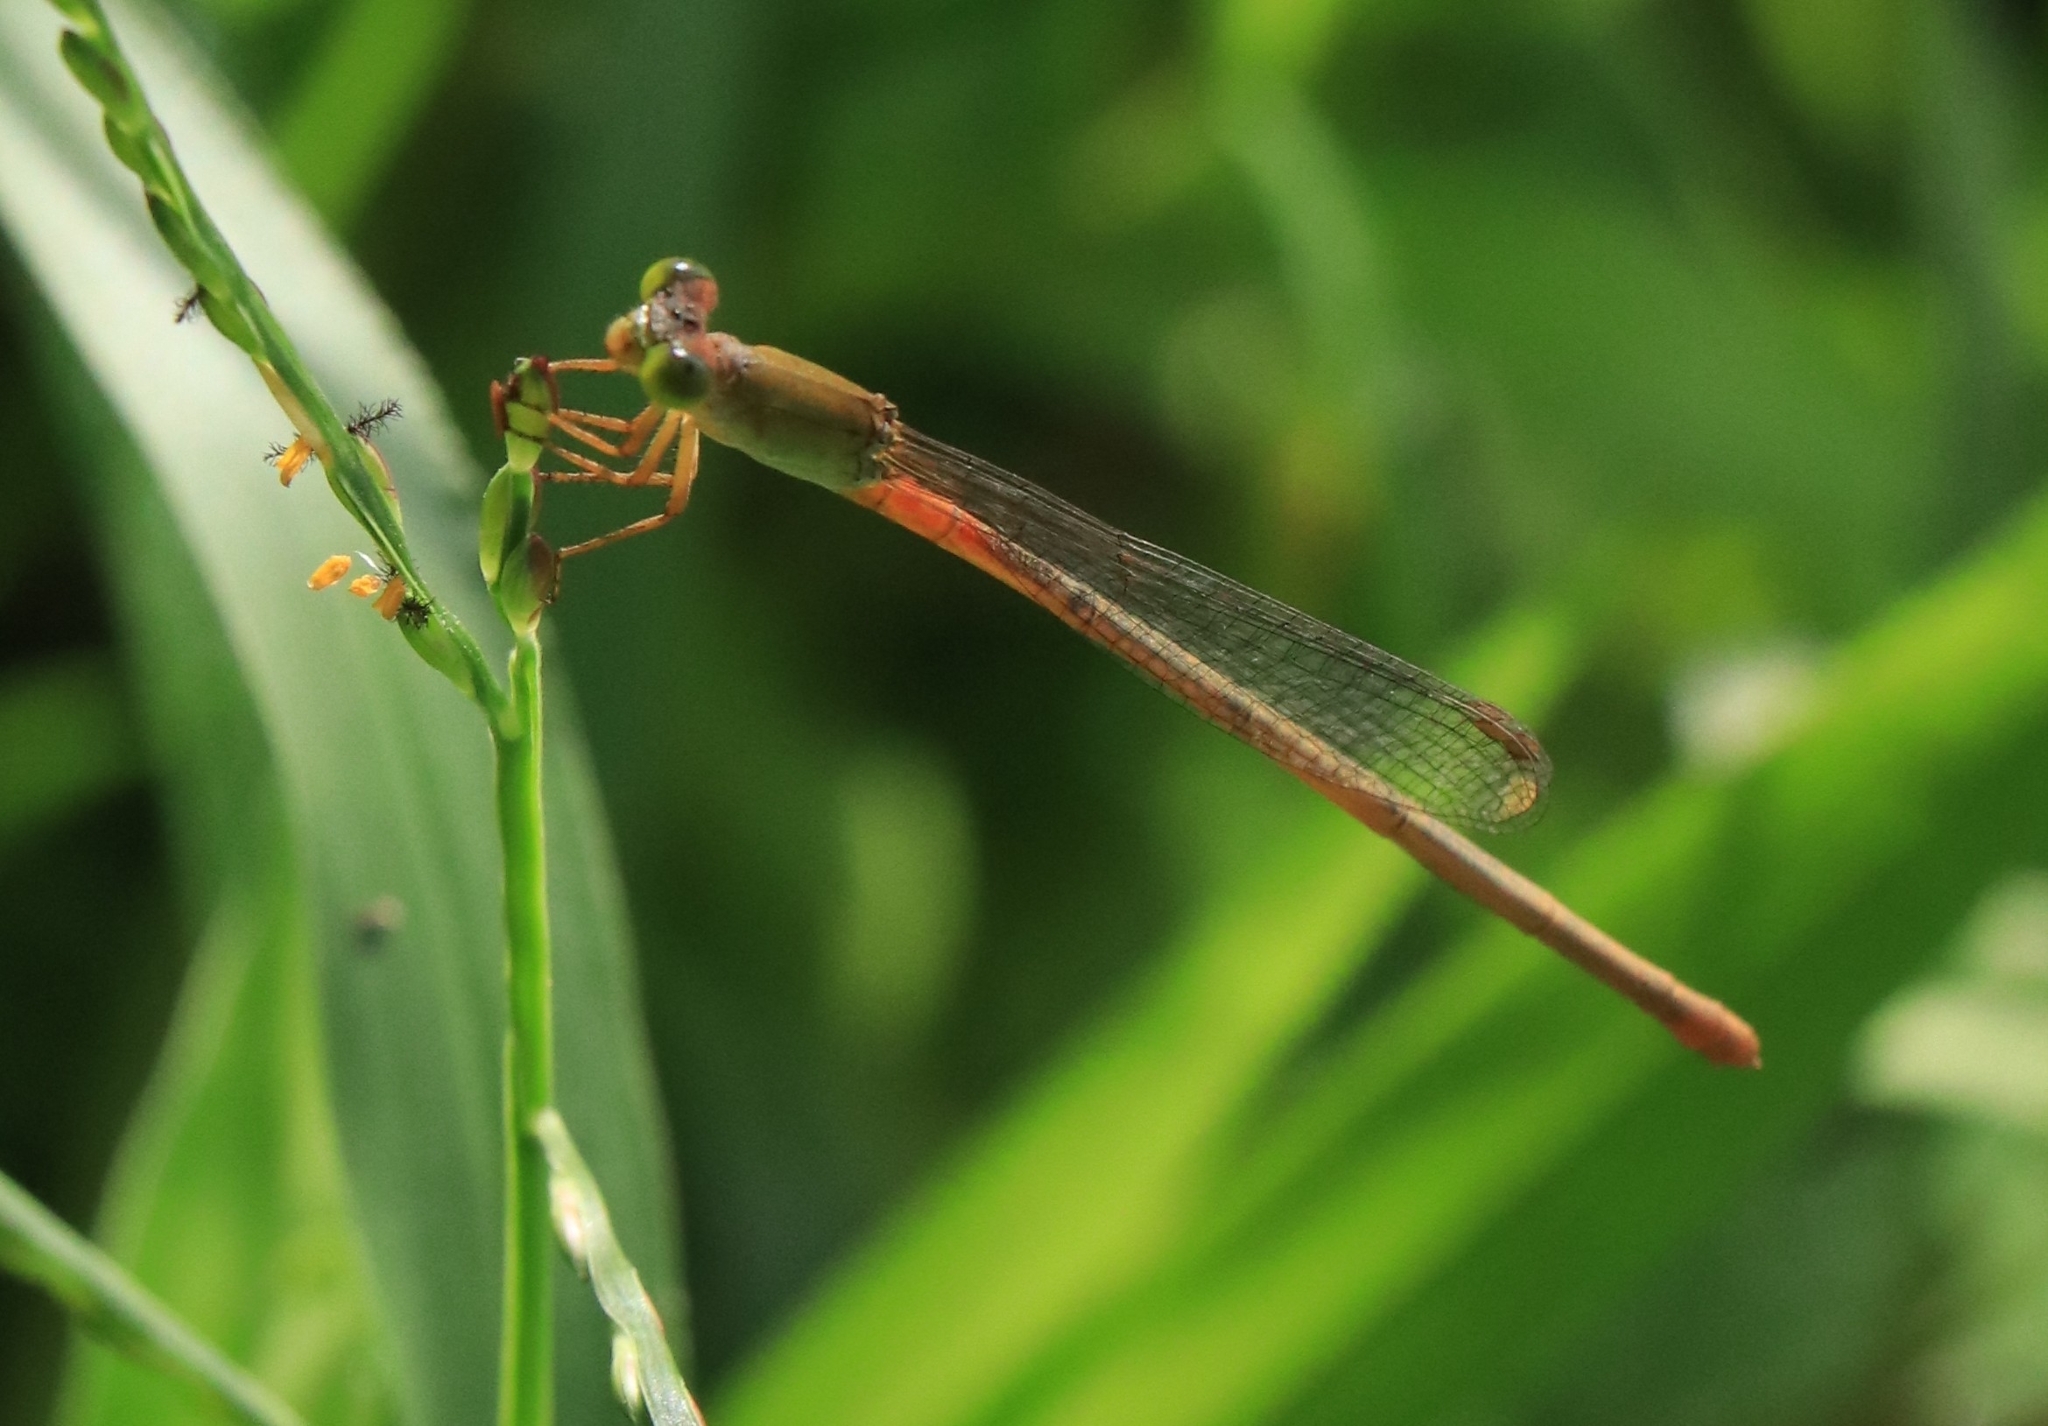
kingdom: Animalia
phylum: Arthropoda
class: Insecta
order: Odonata
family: Coenagrionidae
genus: Ceriagrion
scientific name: Ceriagrion cerinorubellum
